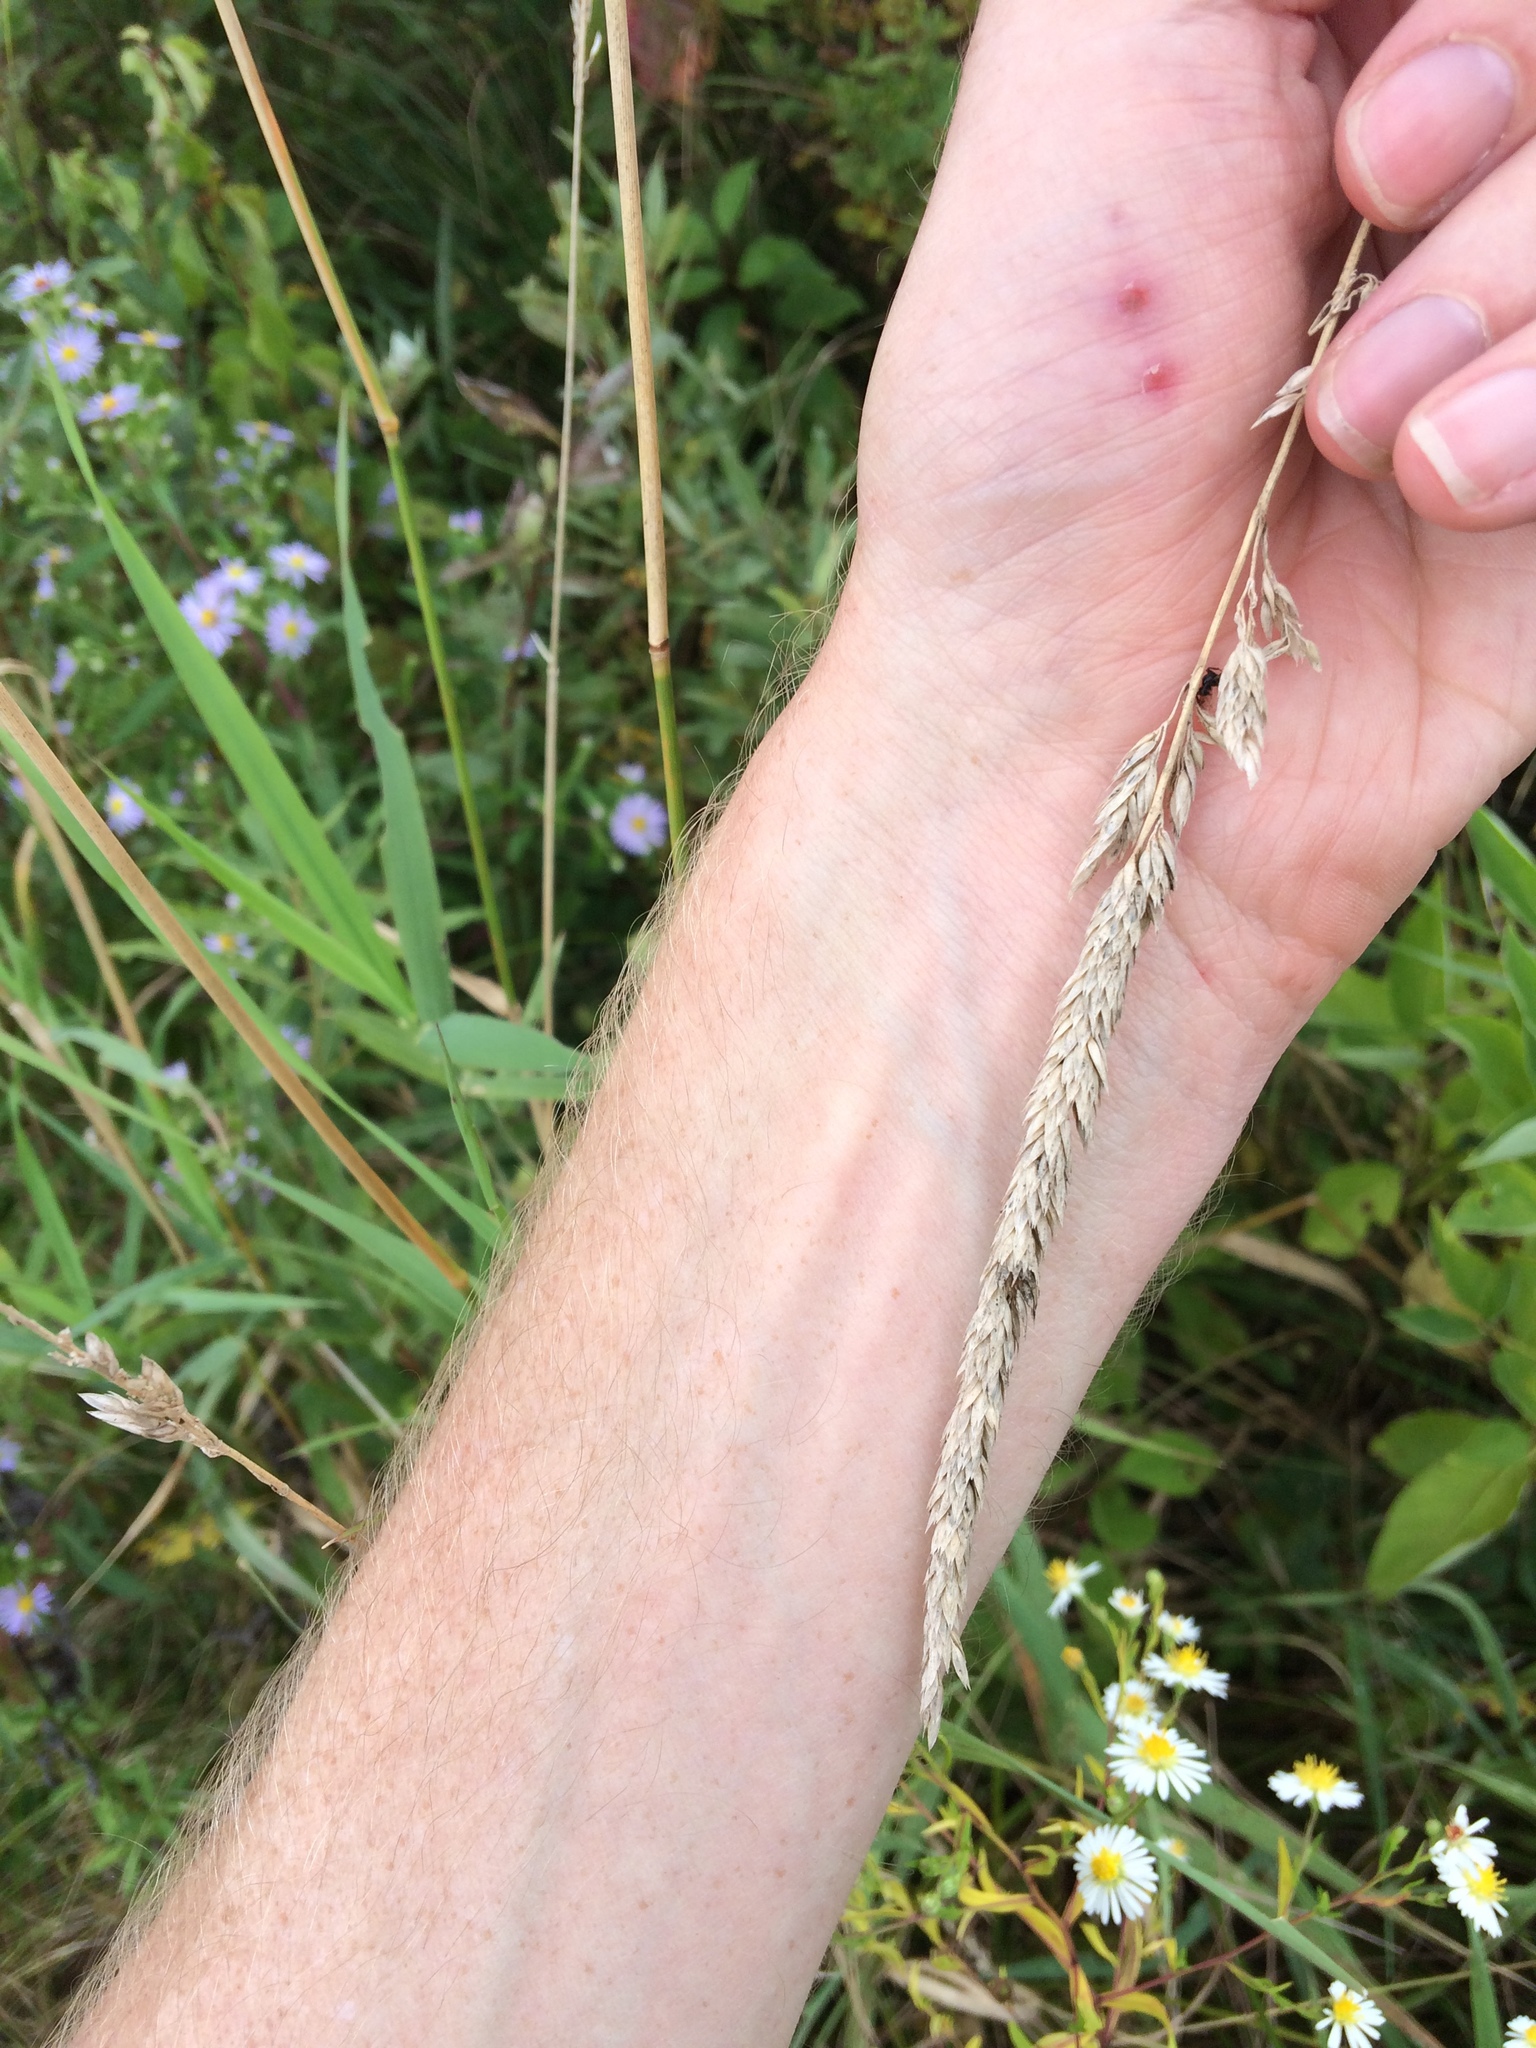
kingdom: Plantae
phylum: Tracheophyta
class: Liliopsida
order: Poales
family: Poaceae
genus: Phalaris
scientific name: Phalaris arundinacea
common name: Reed canary-grass
